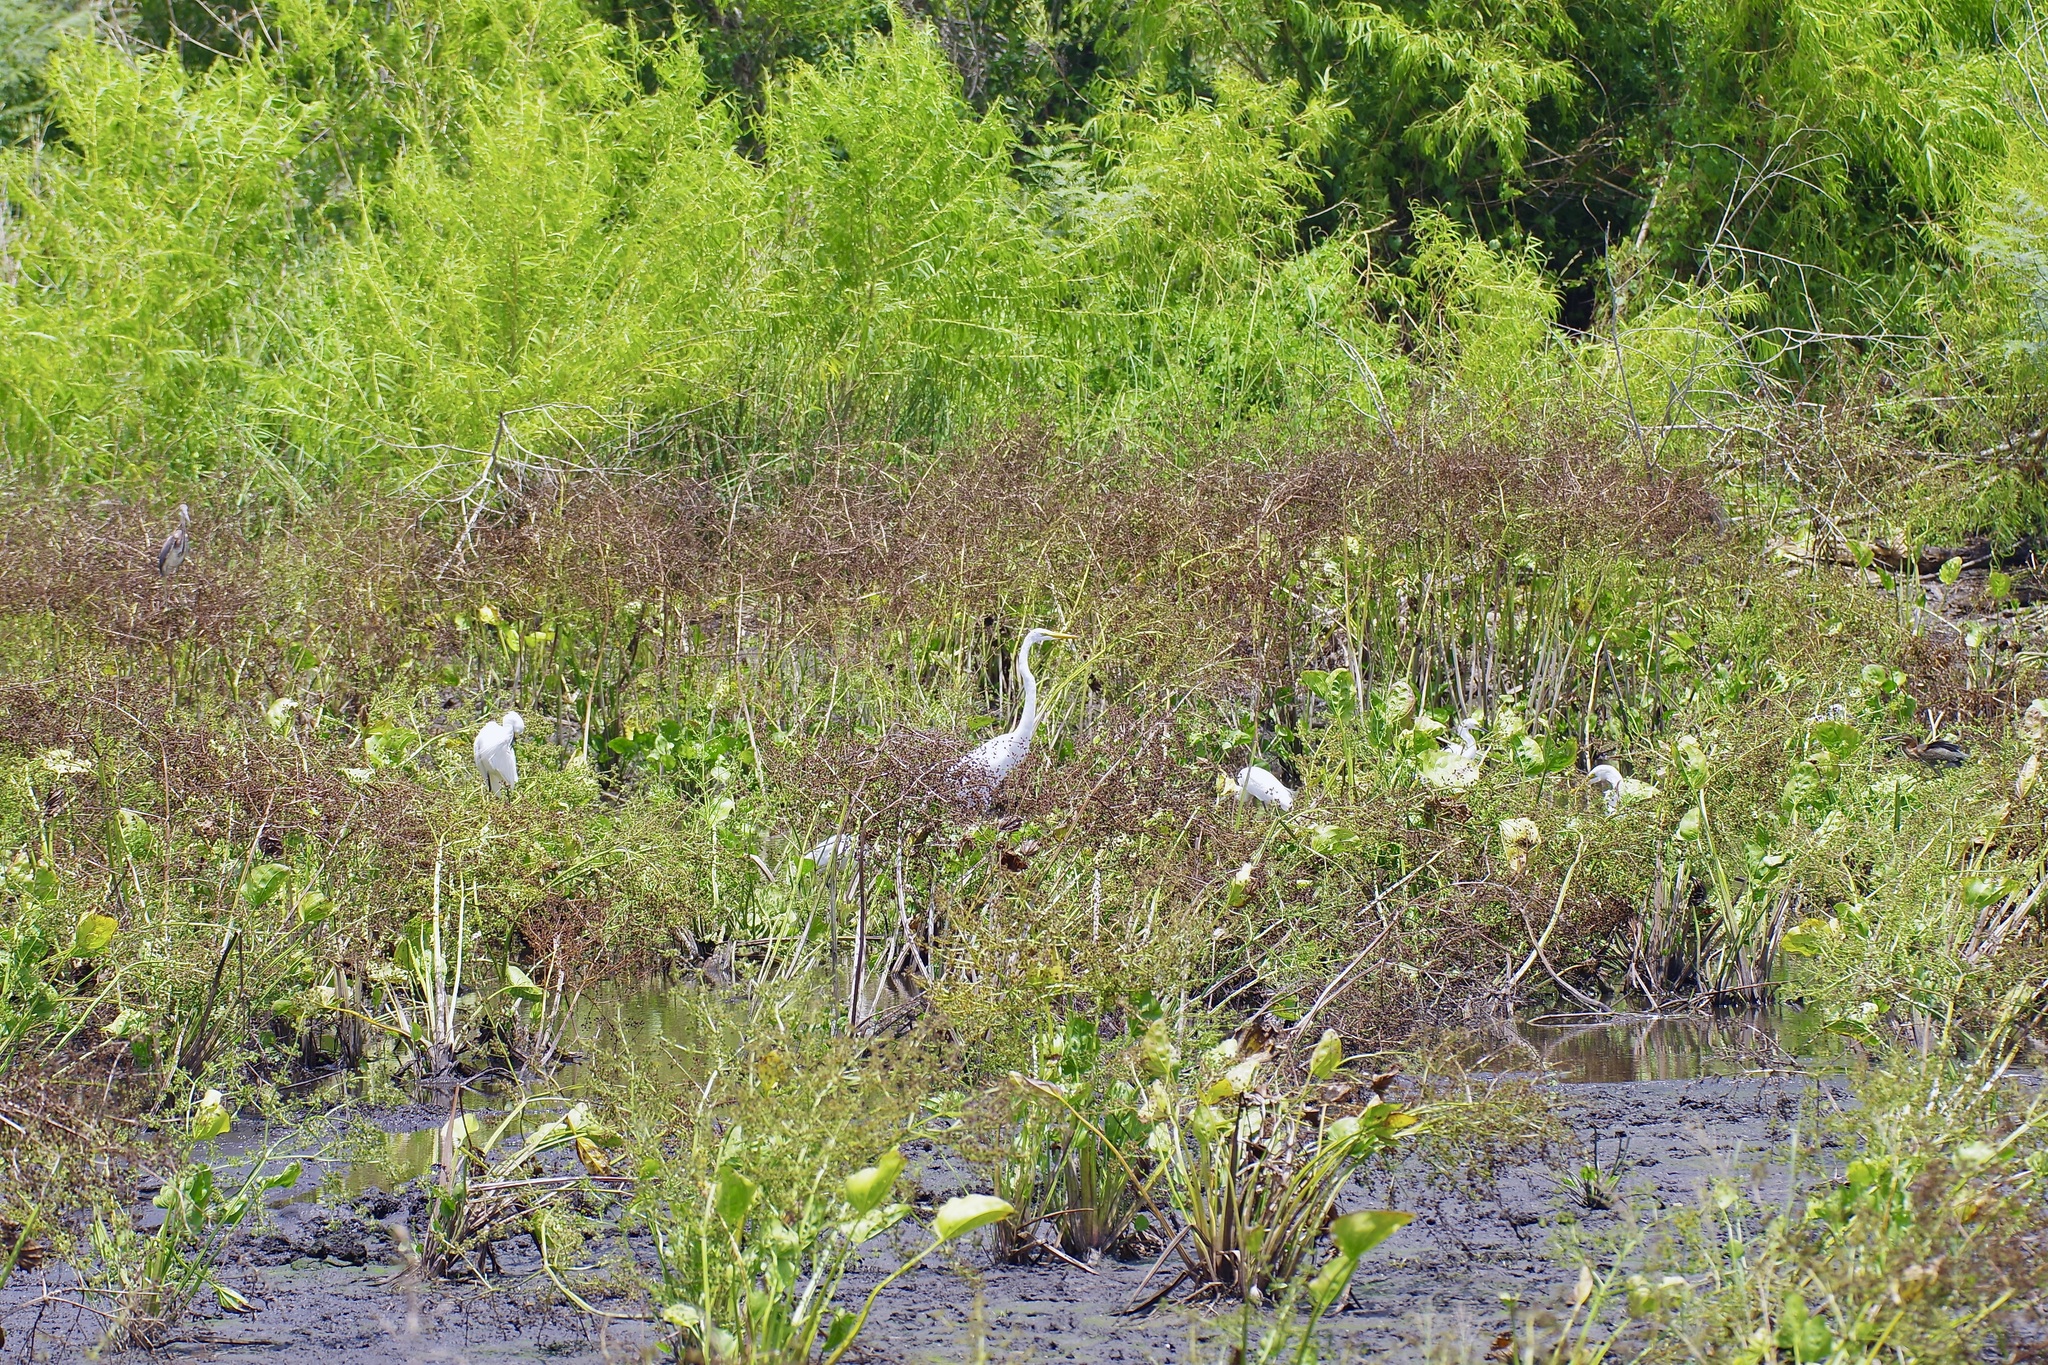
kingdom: Animalia
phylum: Chordata
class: Aves
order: Pelecaniformes
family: Ardeidae
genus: Ardea
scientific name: Ardea alba
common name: Great egret
